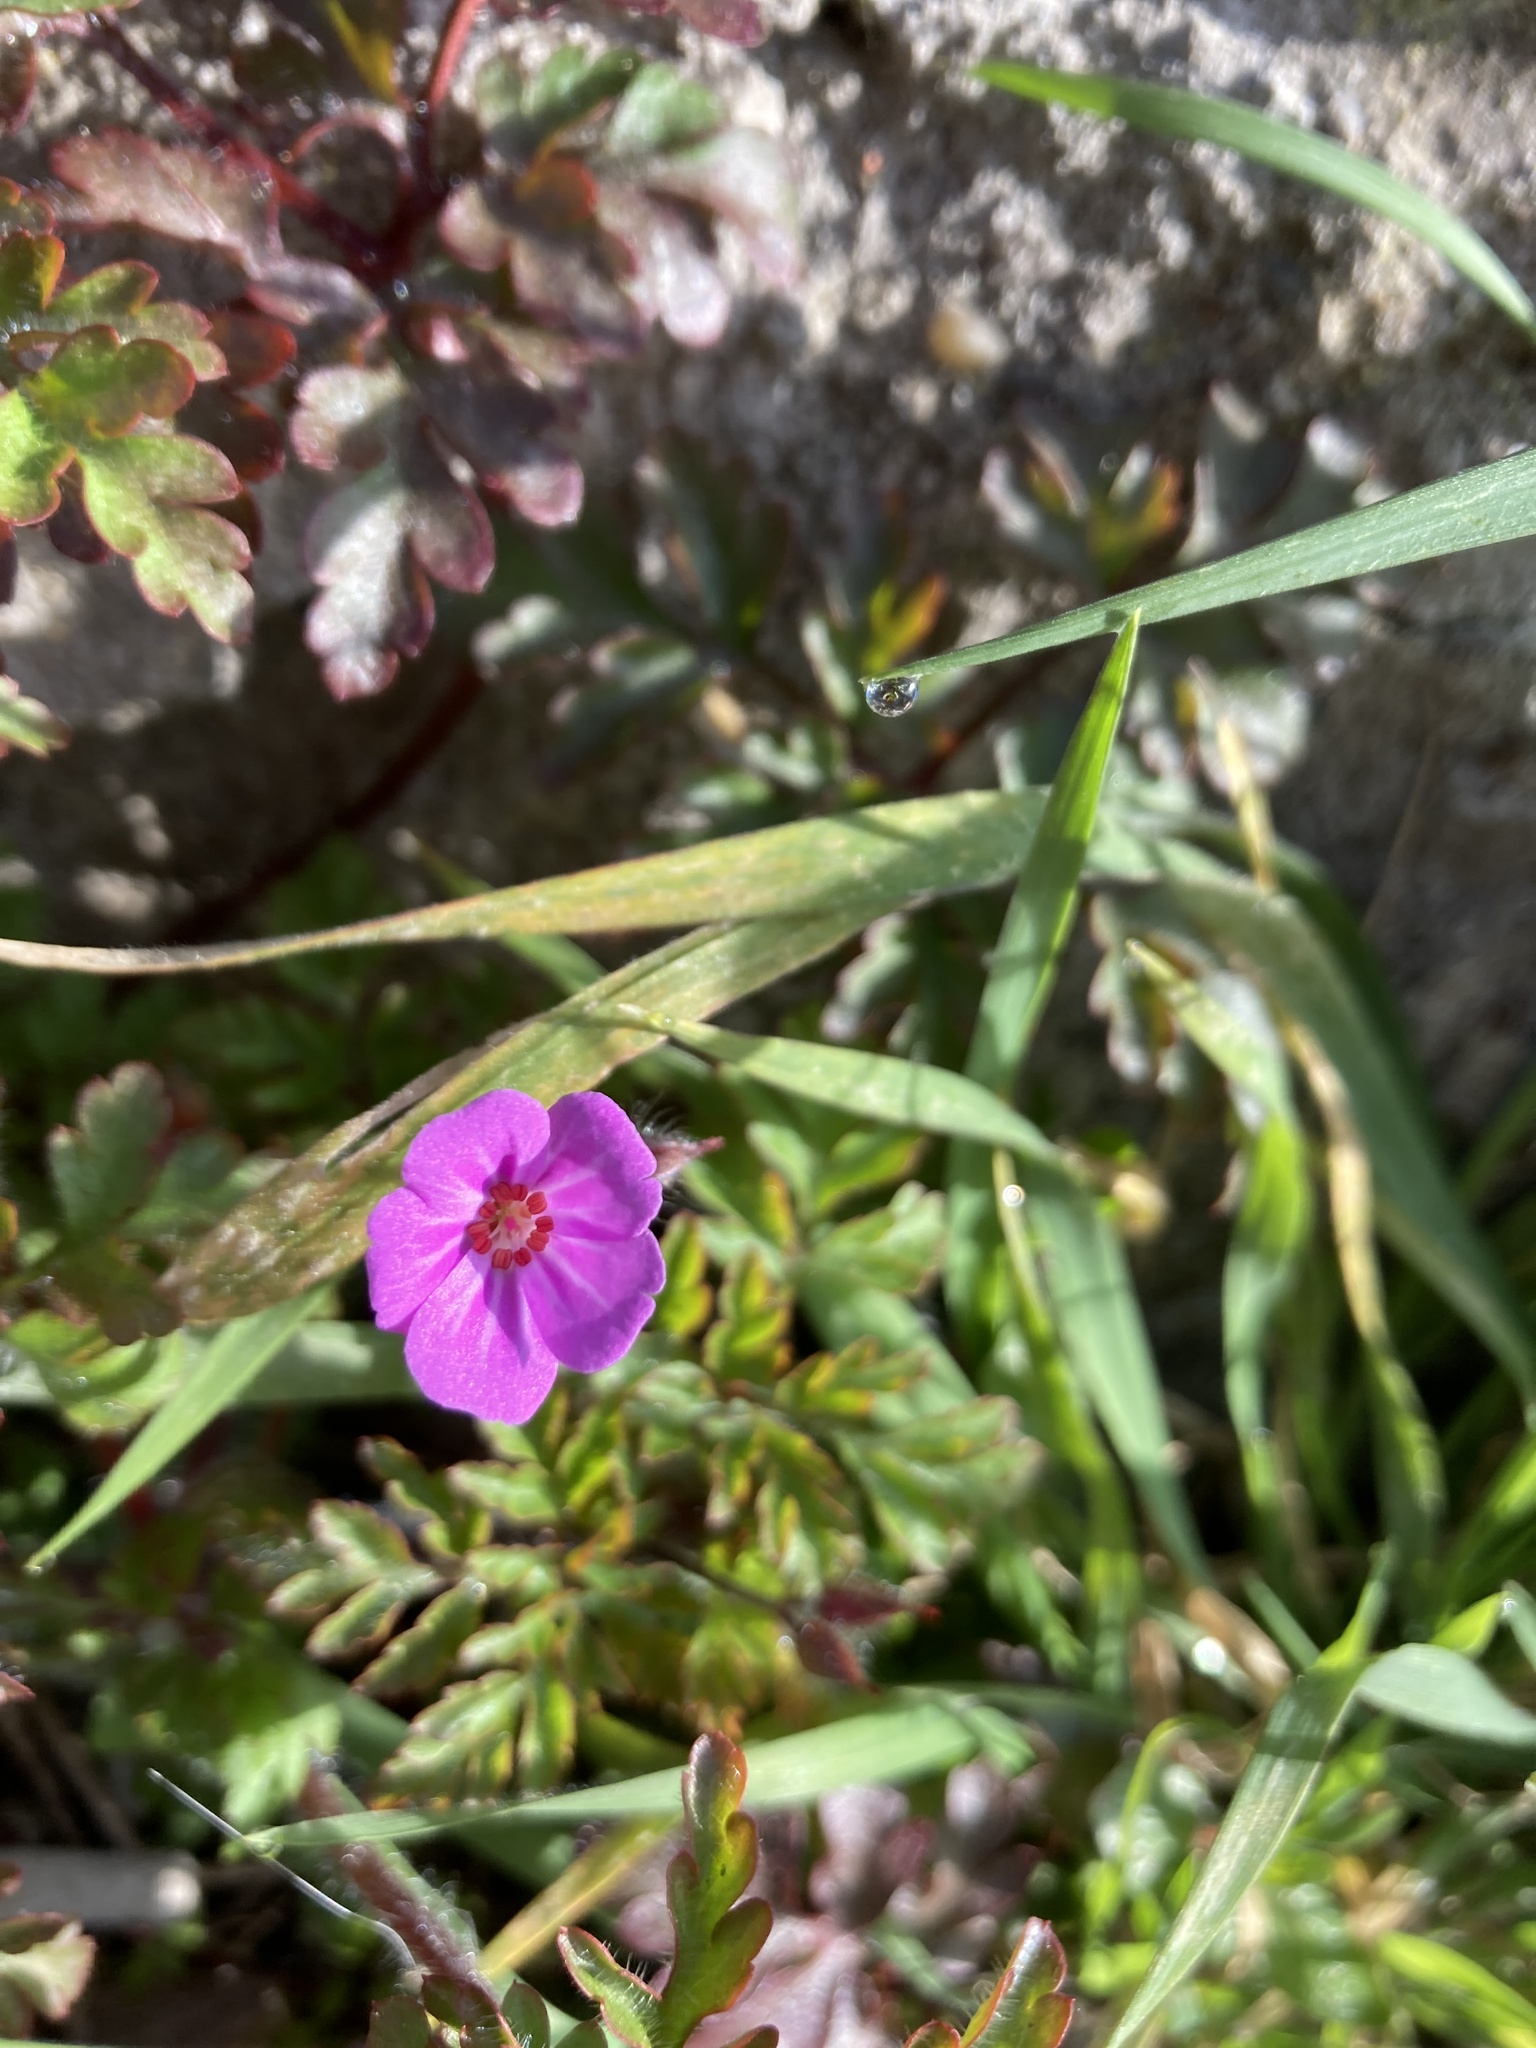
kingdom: Plantae
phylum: Tracheophyta
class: Magnoliopsida
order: Geraniales
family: Geraniaceae
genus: Geranium
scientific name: Geranium robertianum
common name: Herb-robert
